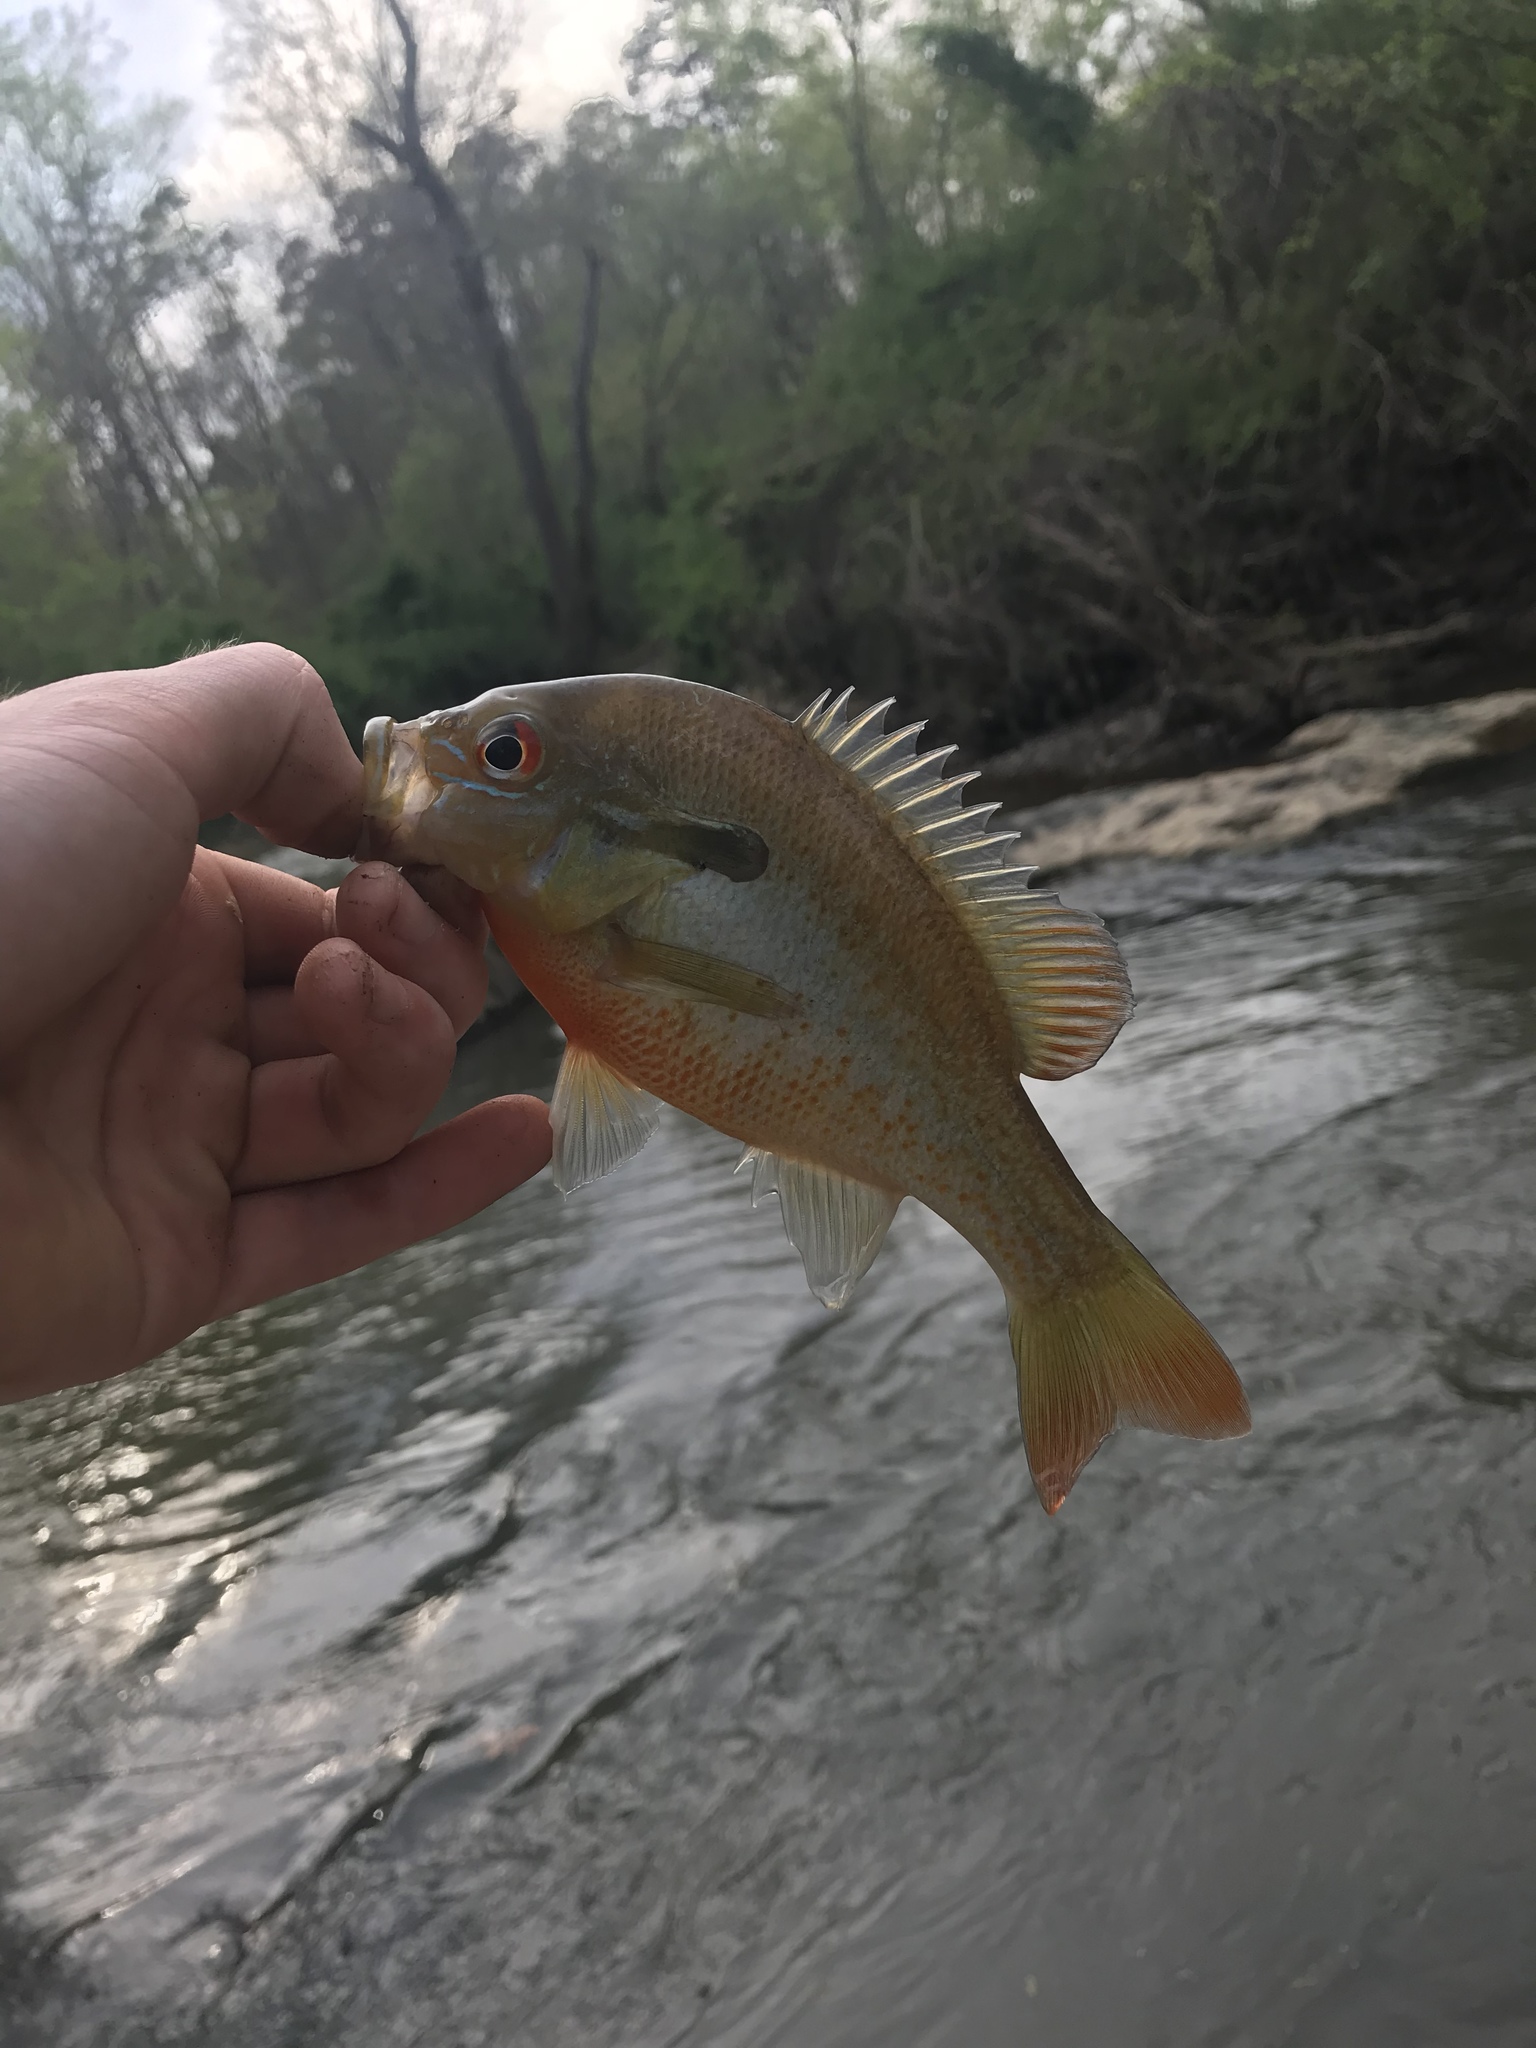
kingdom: Animalia
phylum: Chordata
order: Perciformes
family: Centrarchidae
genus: Lepomis
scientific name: Lepomis auritus
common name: Redbreast sunfish
